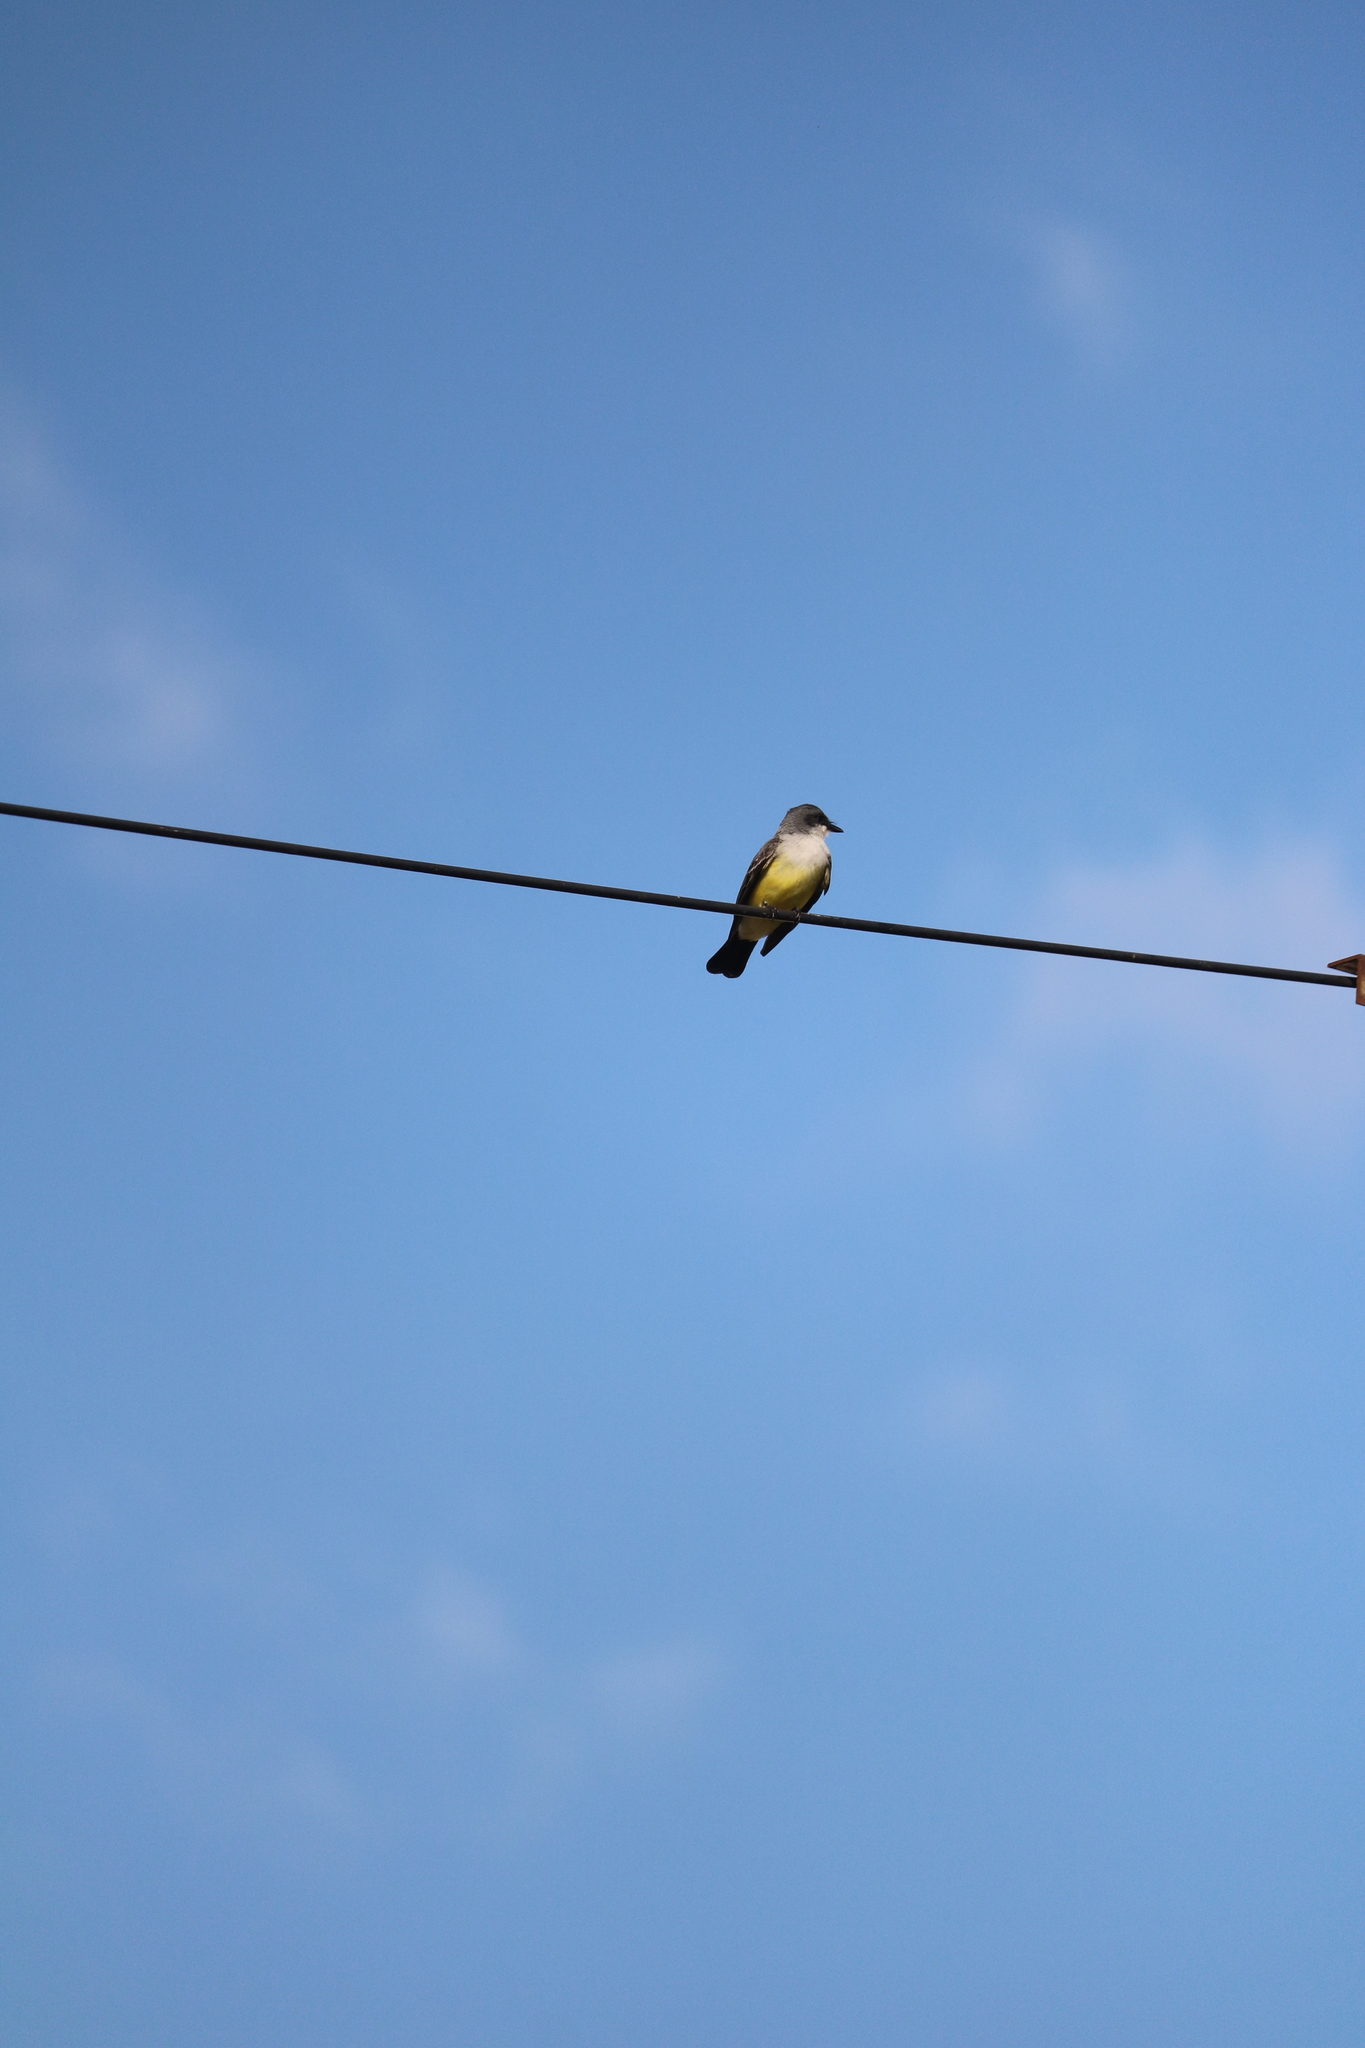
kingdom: Animalia
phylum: Chordata
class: Aves
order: Passeriformes
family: Tyrannidae
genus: Tyrannus
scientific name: Tyrannus niveigularis
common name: Snowy-throated kingbird
